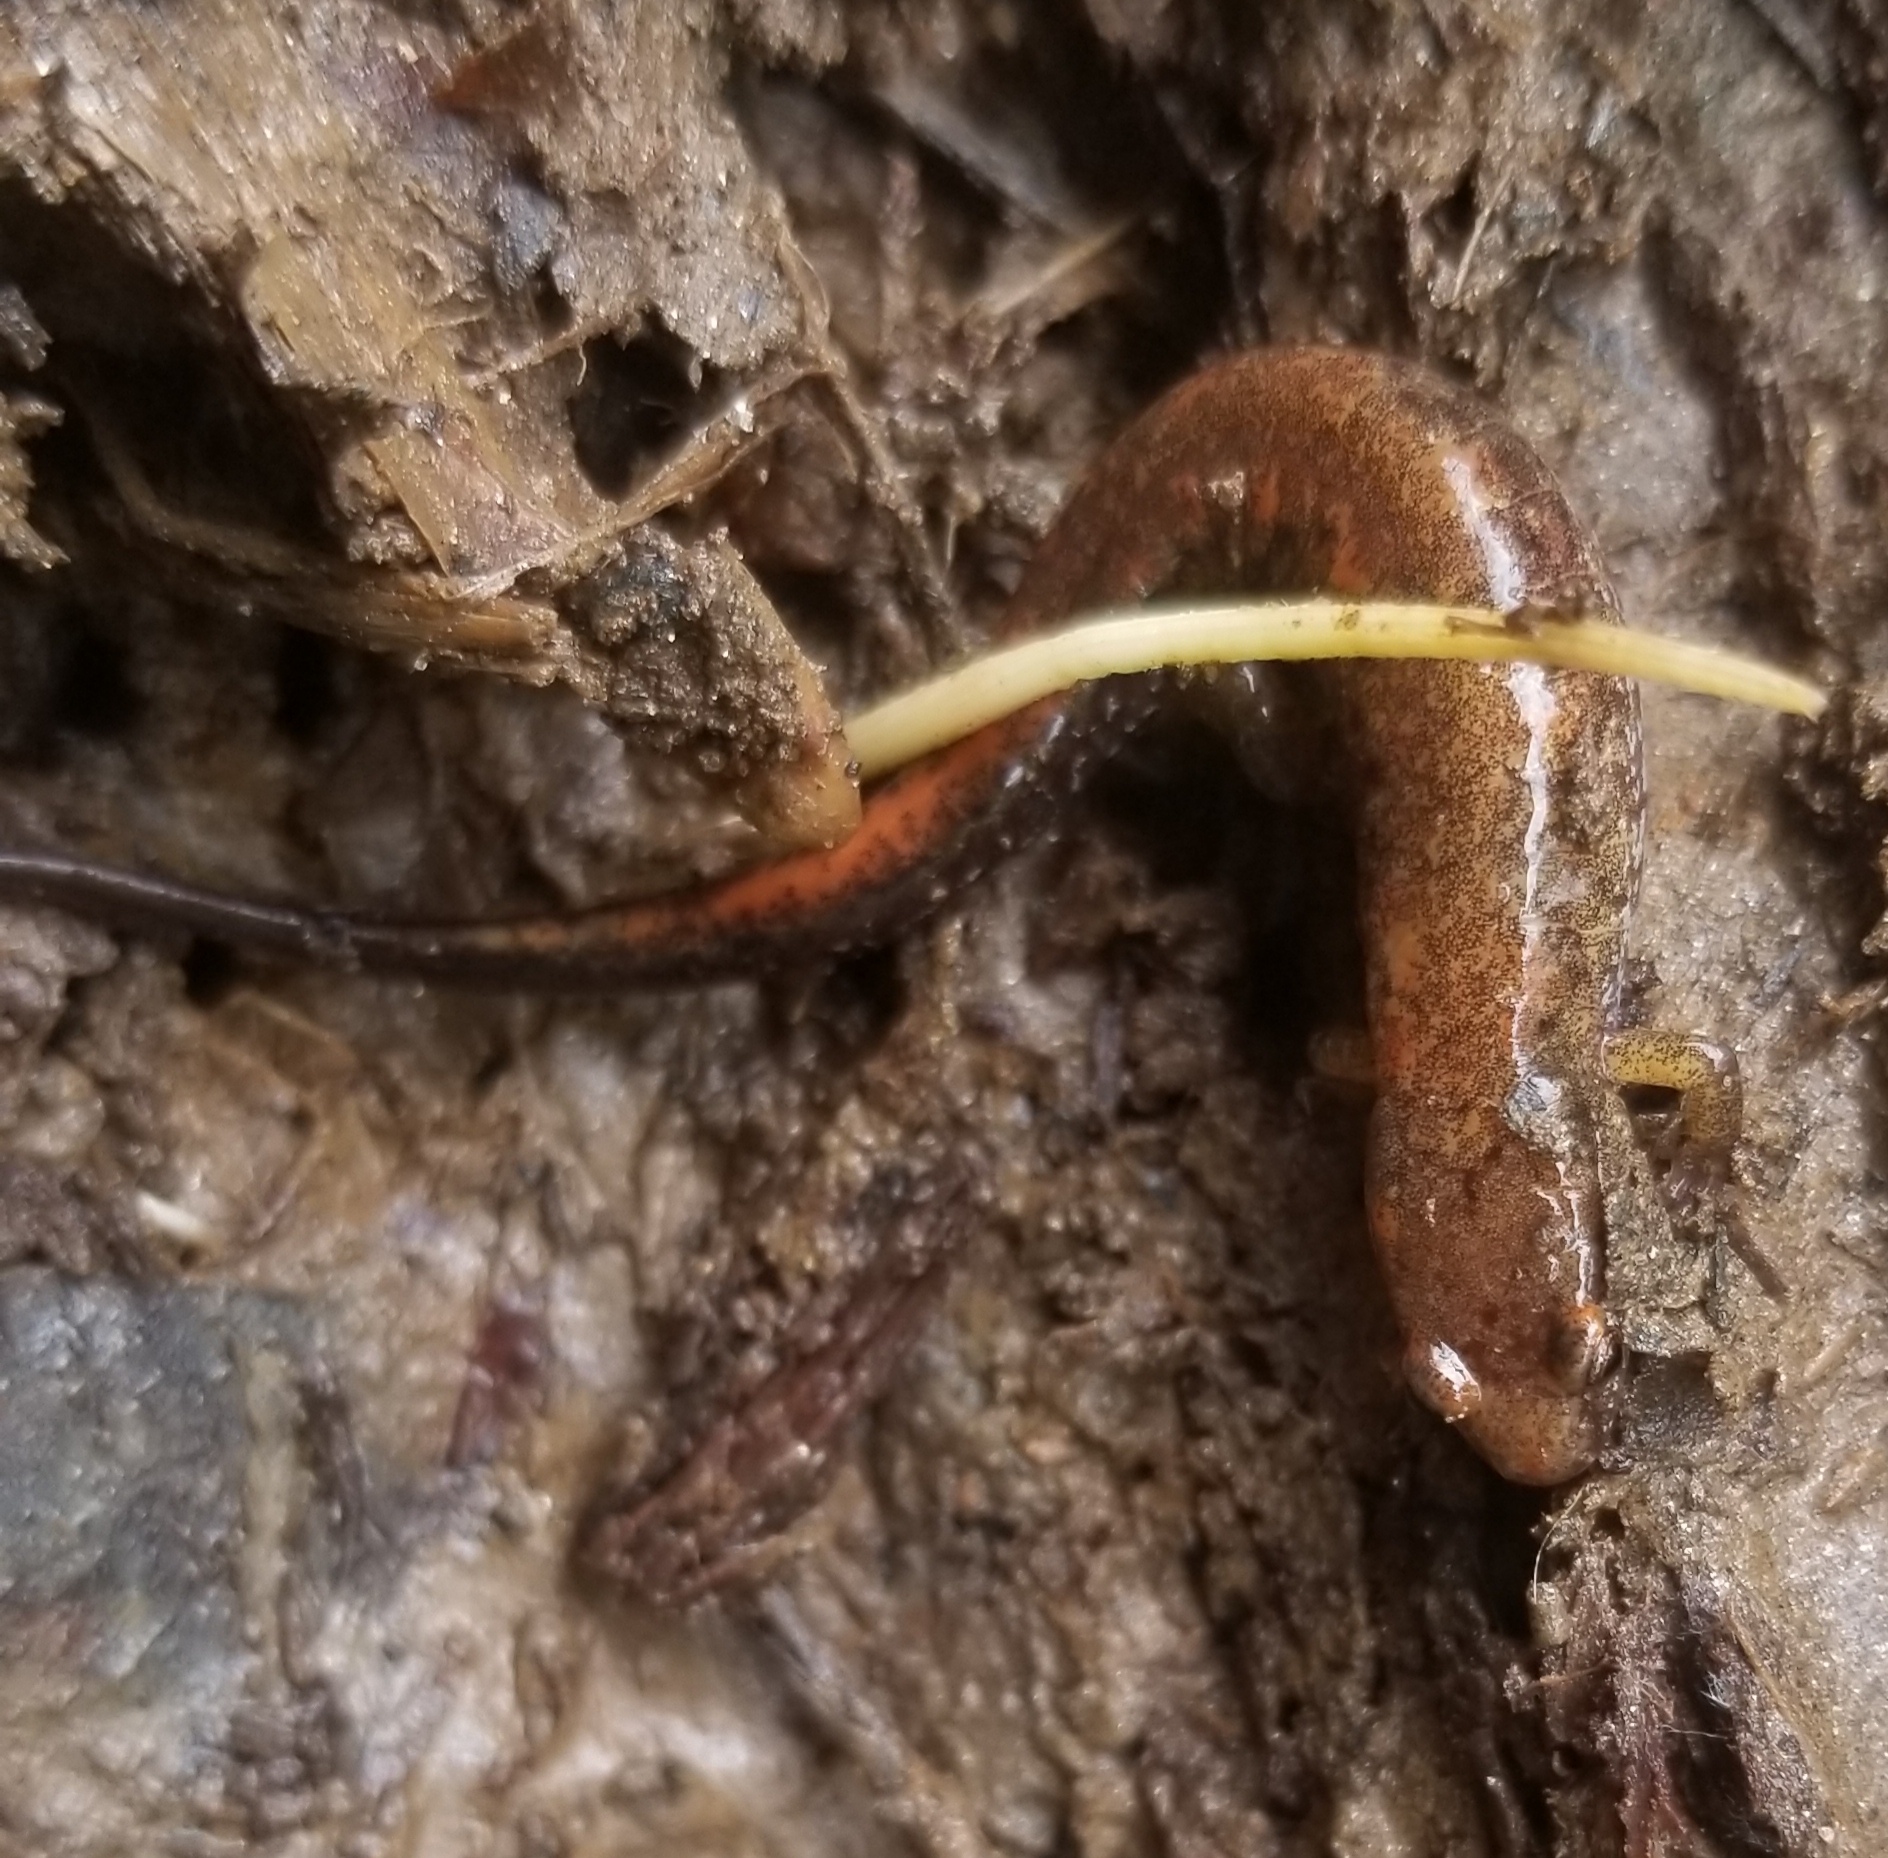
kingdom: Animalia
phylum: Chordata
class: Amphibia
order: Caudata
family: Plethodontidae
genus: Desmognathus
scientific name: Desmognathus carolinensis
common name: Carolina mountain dusky salamander
